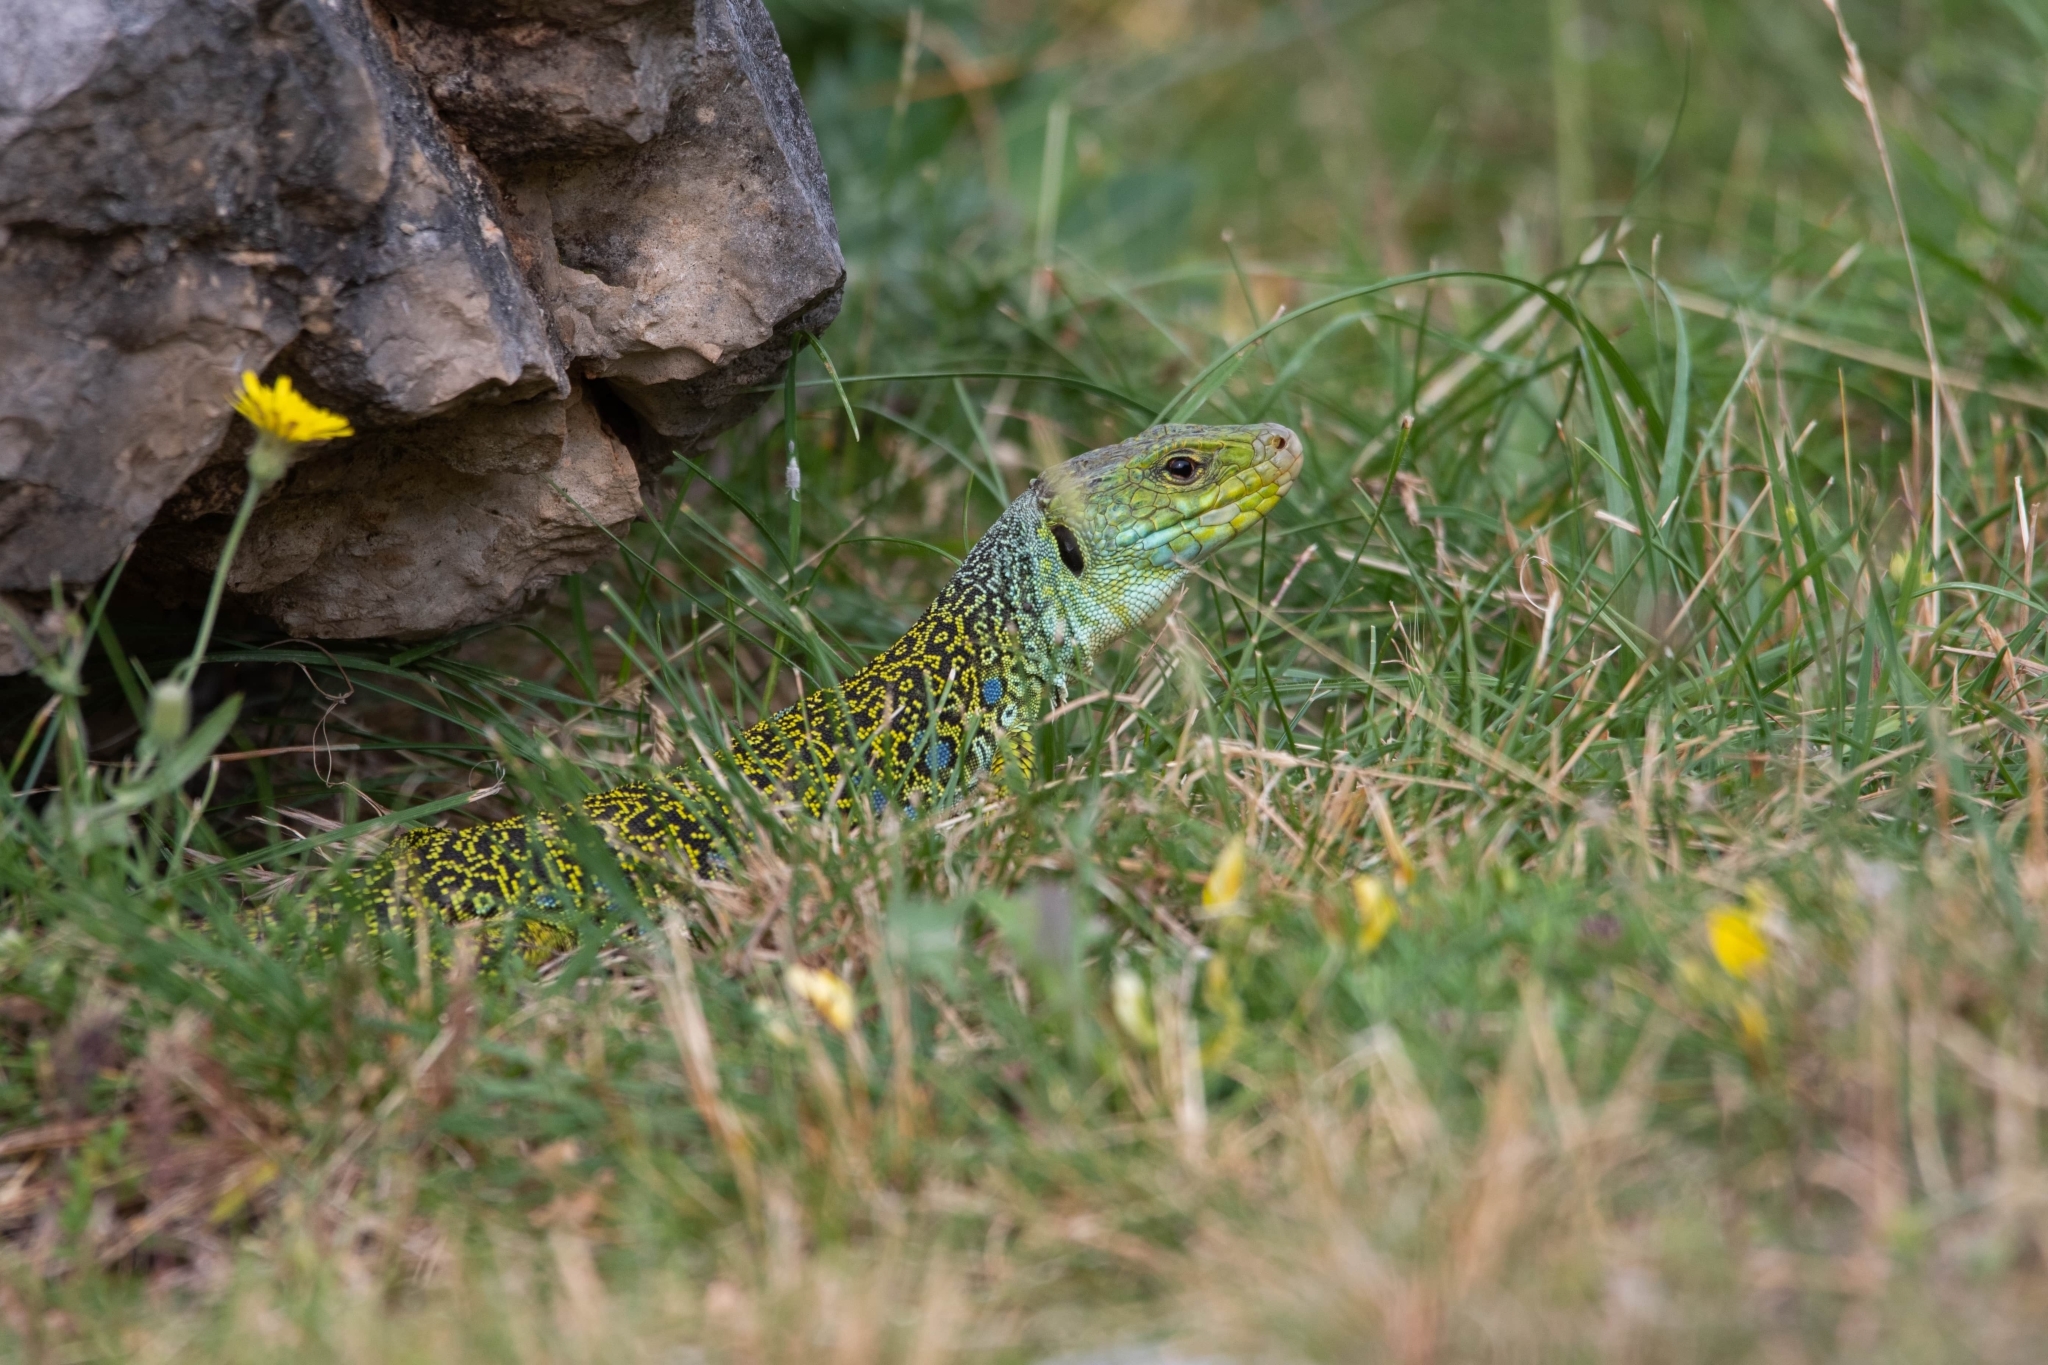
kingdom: Animalia
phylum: Chordata
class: Squamata
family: Lacertidae
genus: Timon
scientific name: Timon lepidus
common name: Ocellated lizard
